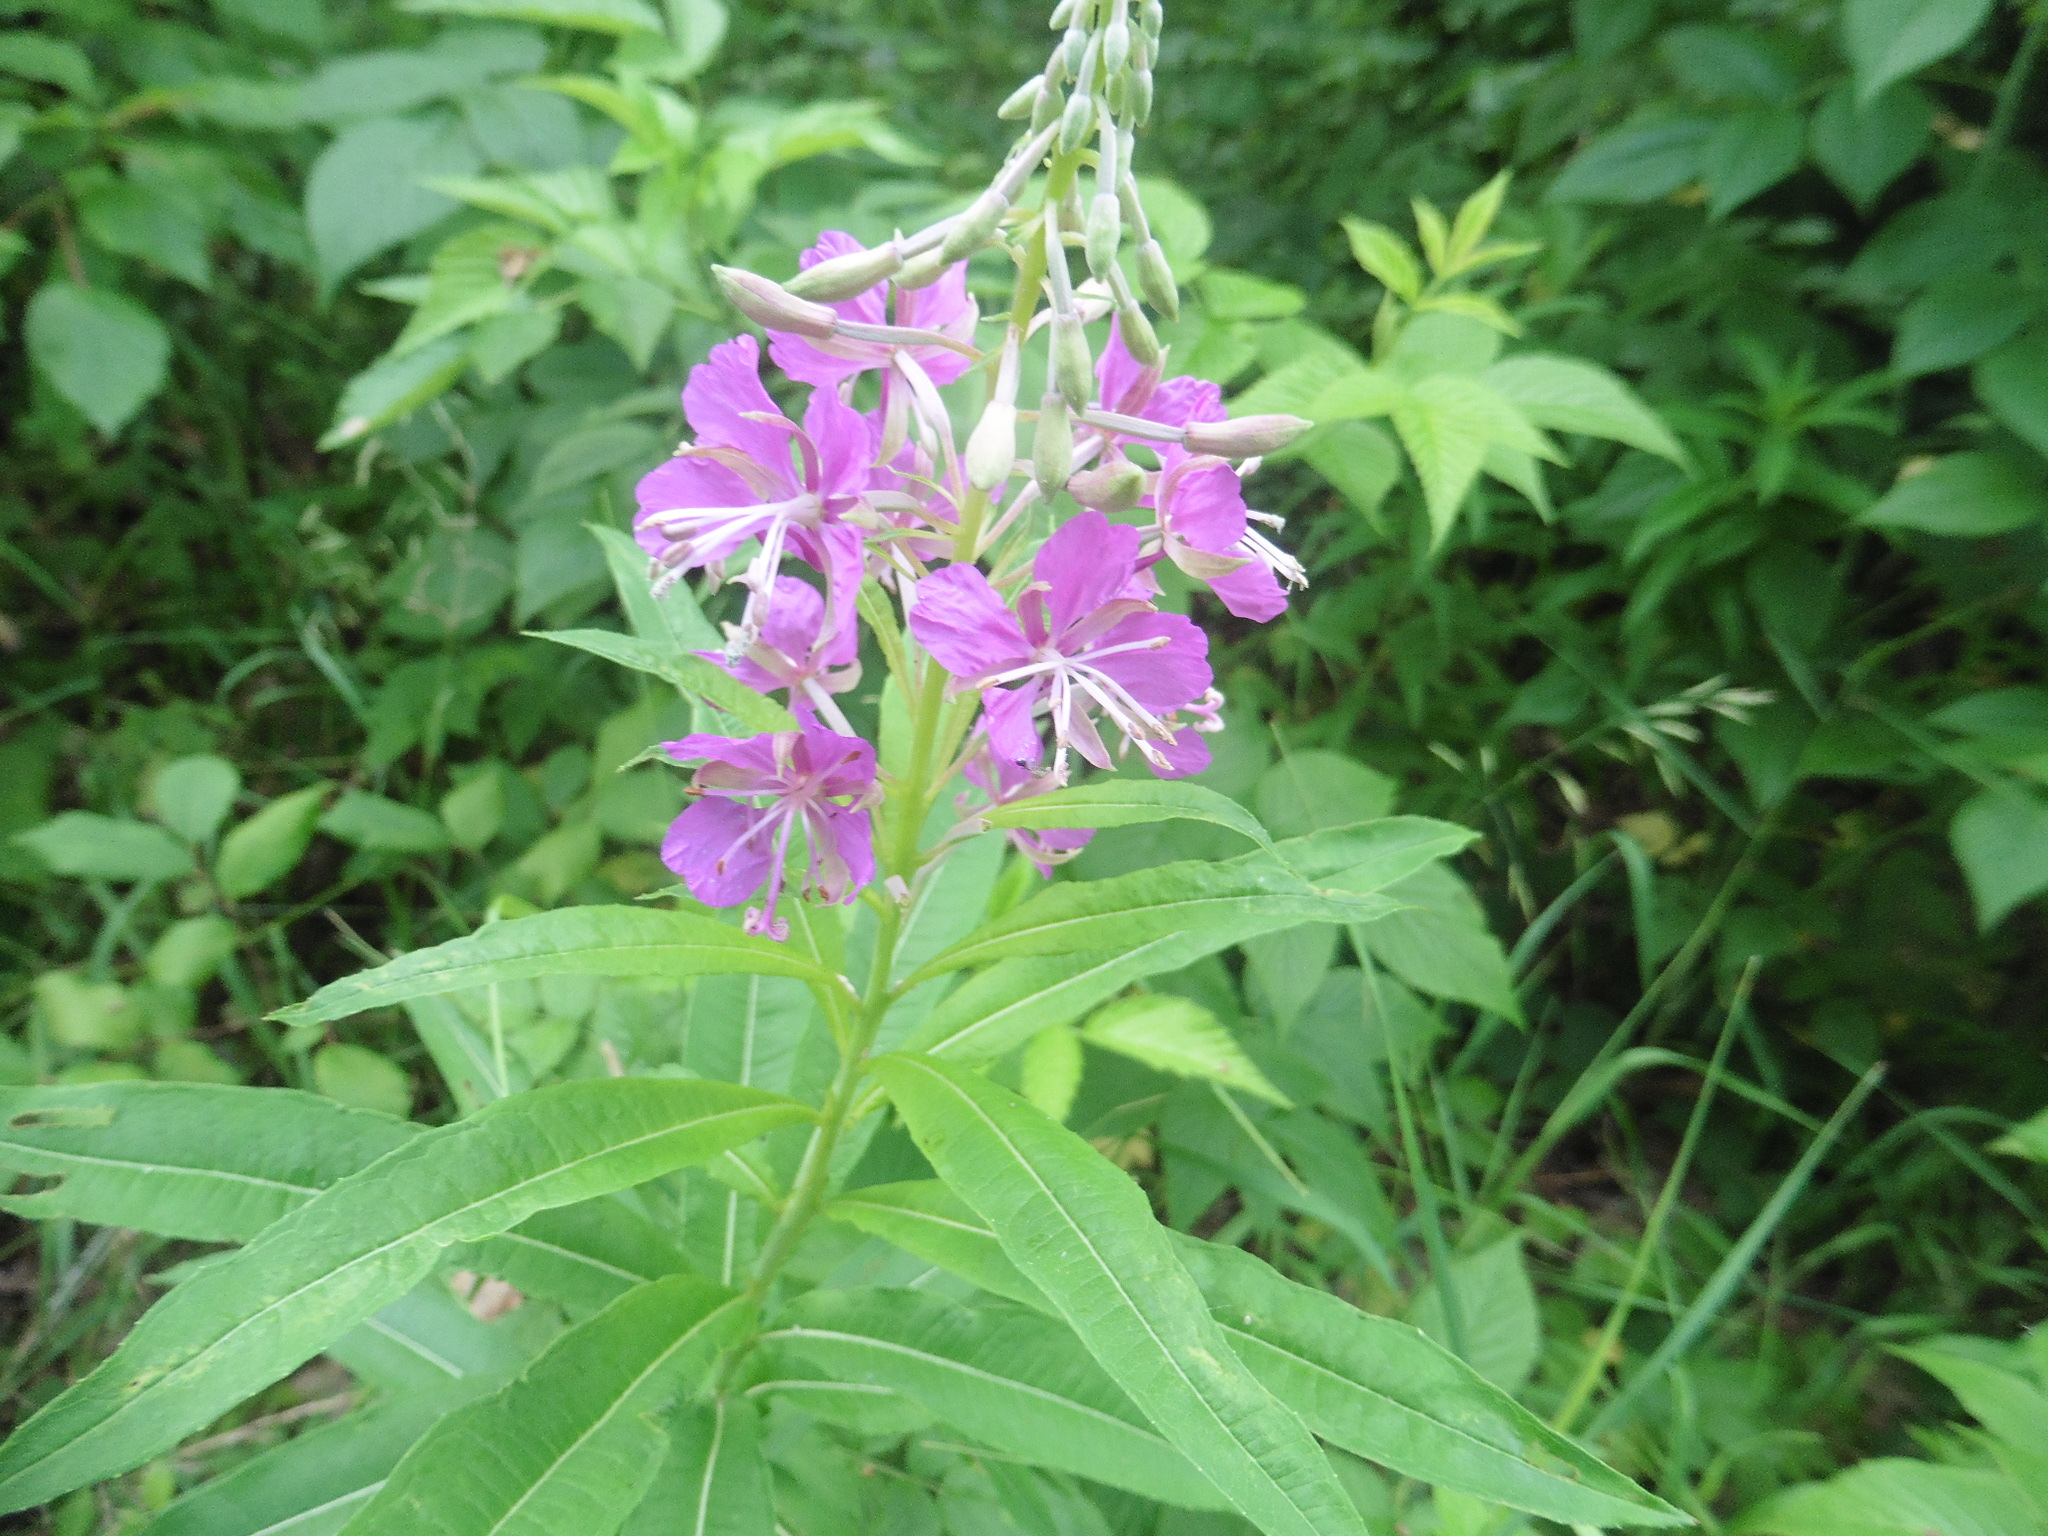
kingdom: Plantae
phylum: Tracheophyta
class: Magnoliopsida
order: Myrtales
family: Onagraceae
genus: Chamaenerion
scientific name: Chamaenerion angustifolium
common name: Fireweed
